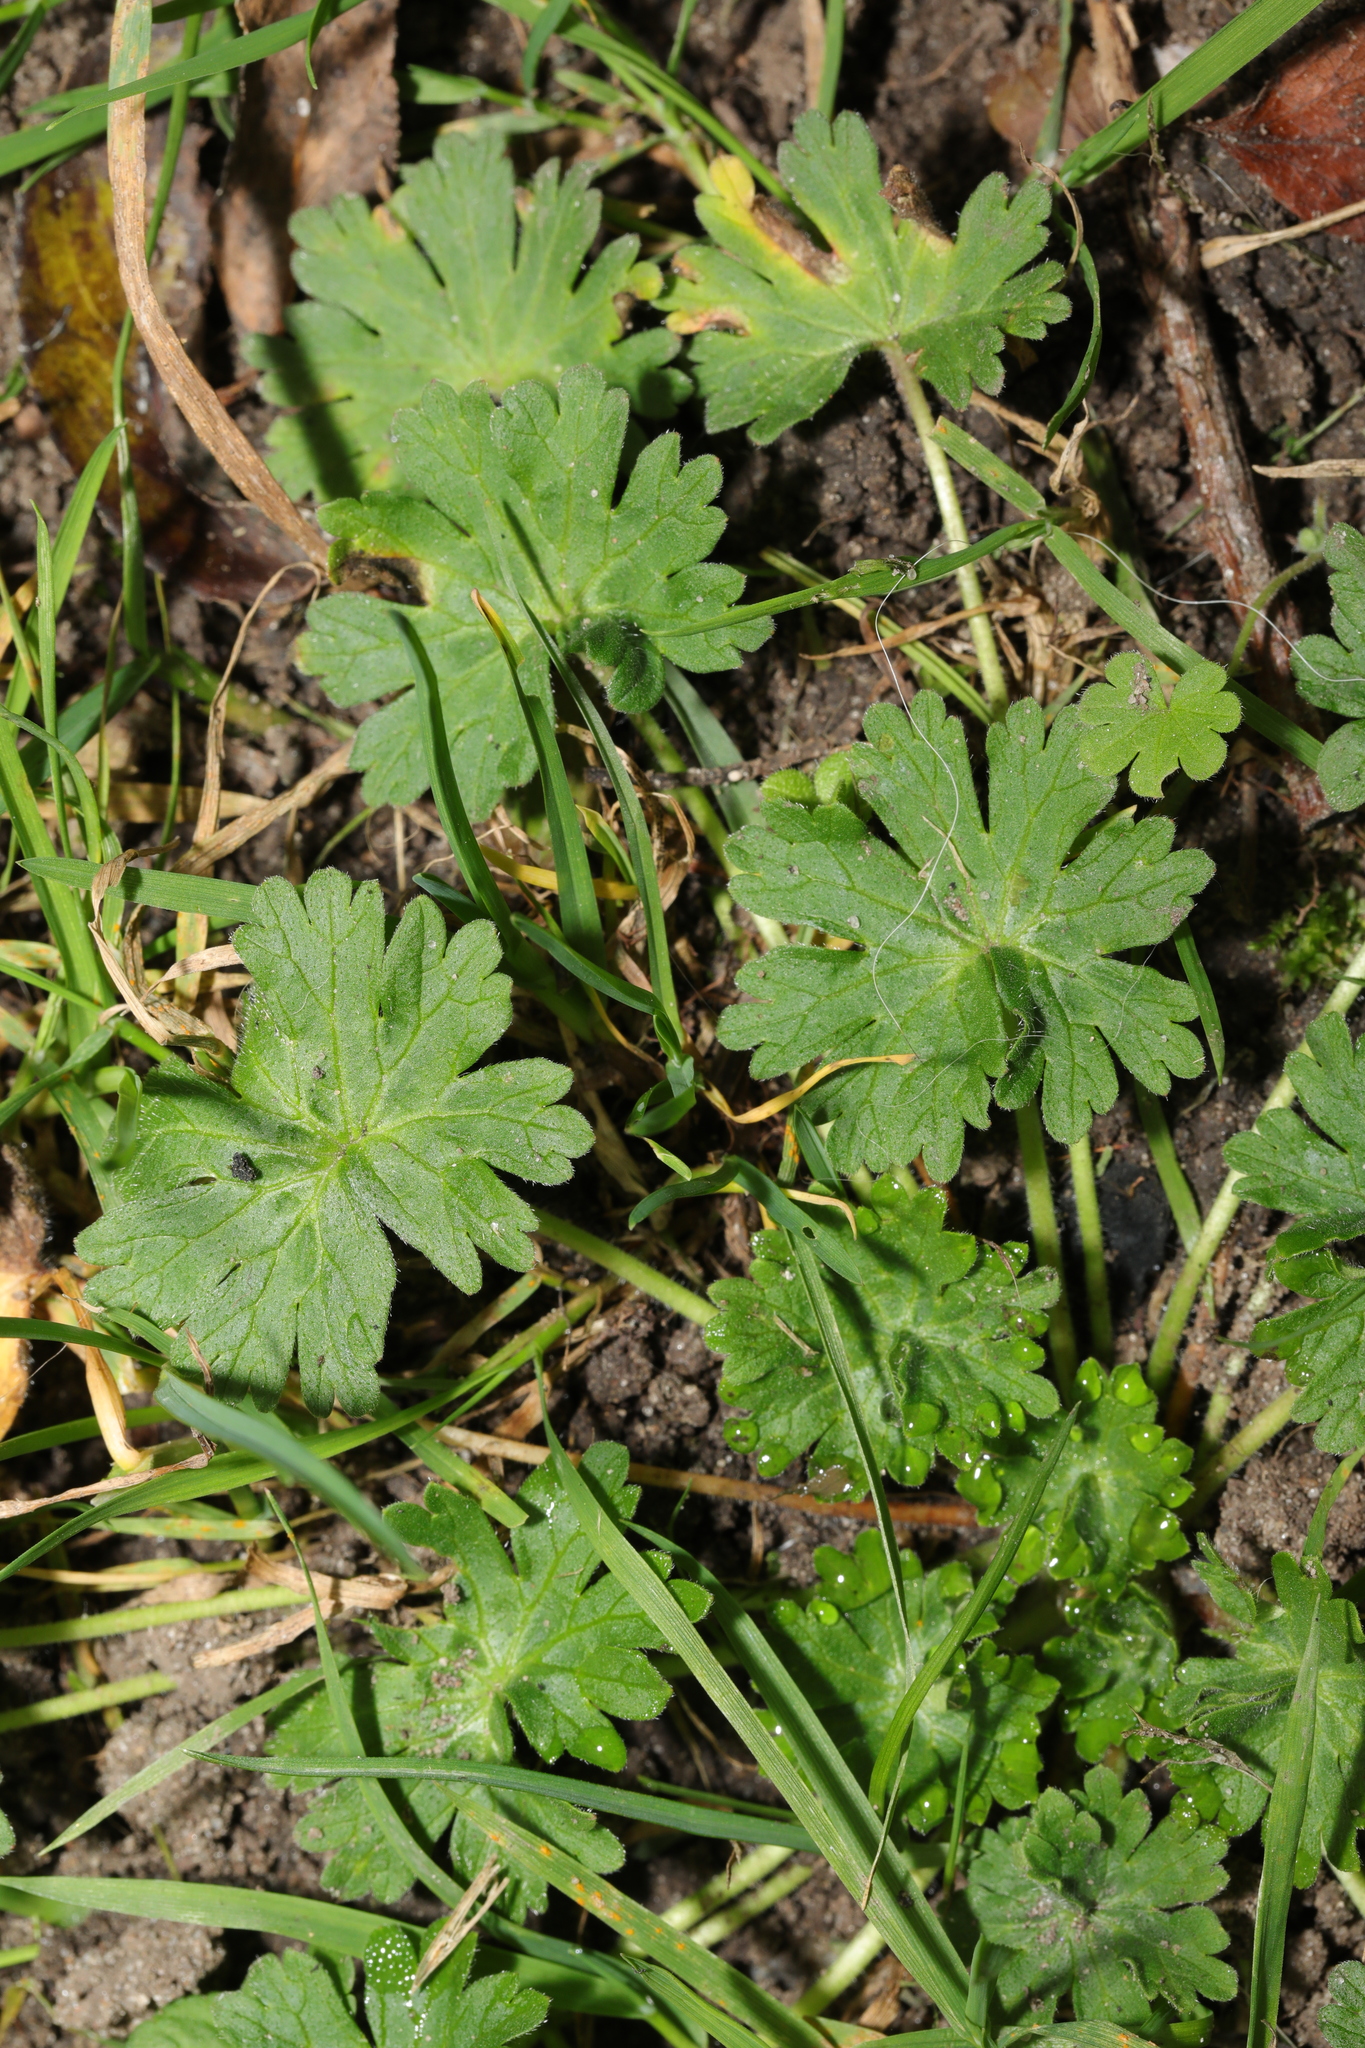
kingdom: Plantae
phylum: Tracheophyta
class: Magnoliopsida
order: Geraniales
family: Geraniaceae
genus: Geranium
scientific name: Geranium molle
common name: Dove's-foot crane's-bill
